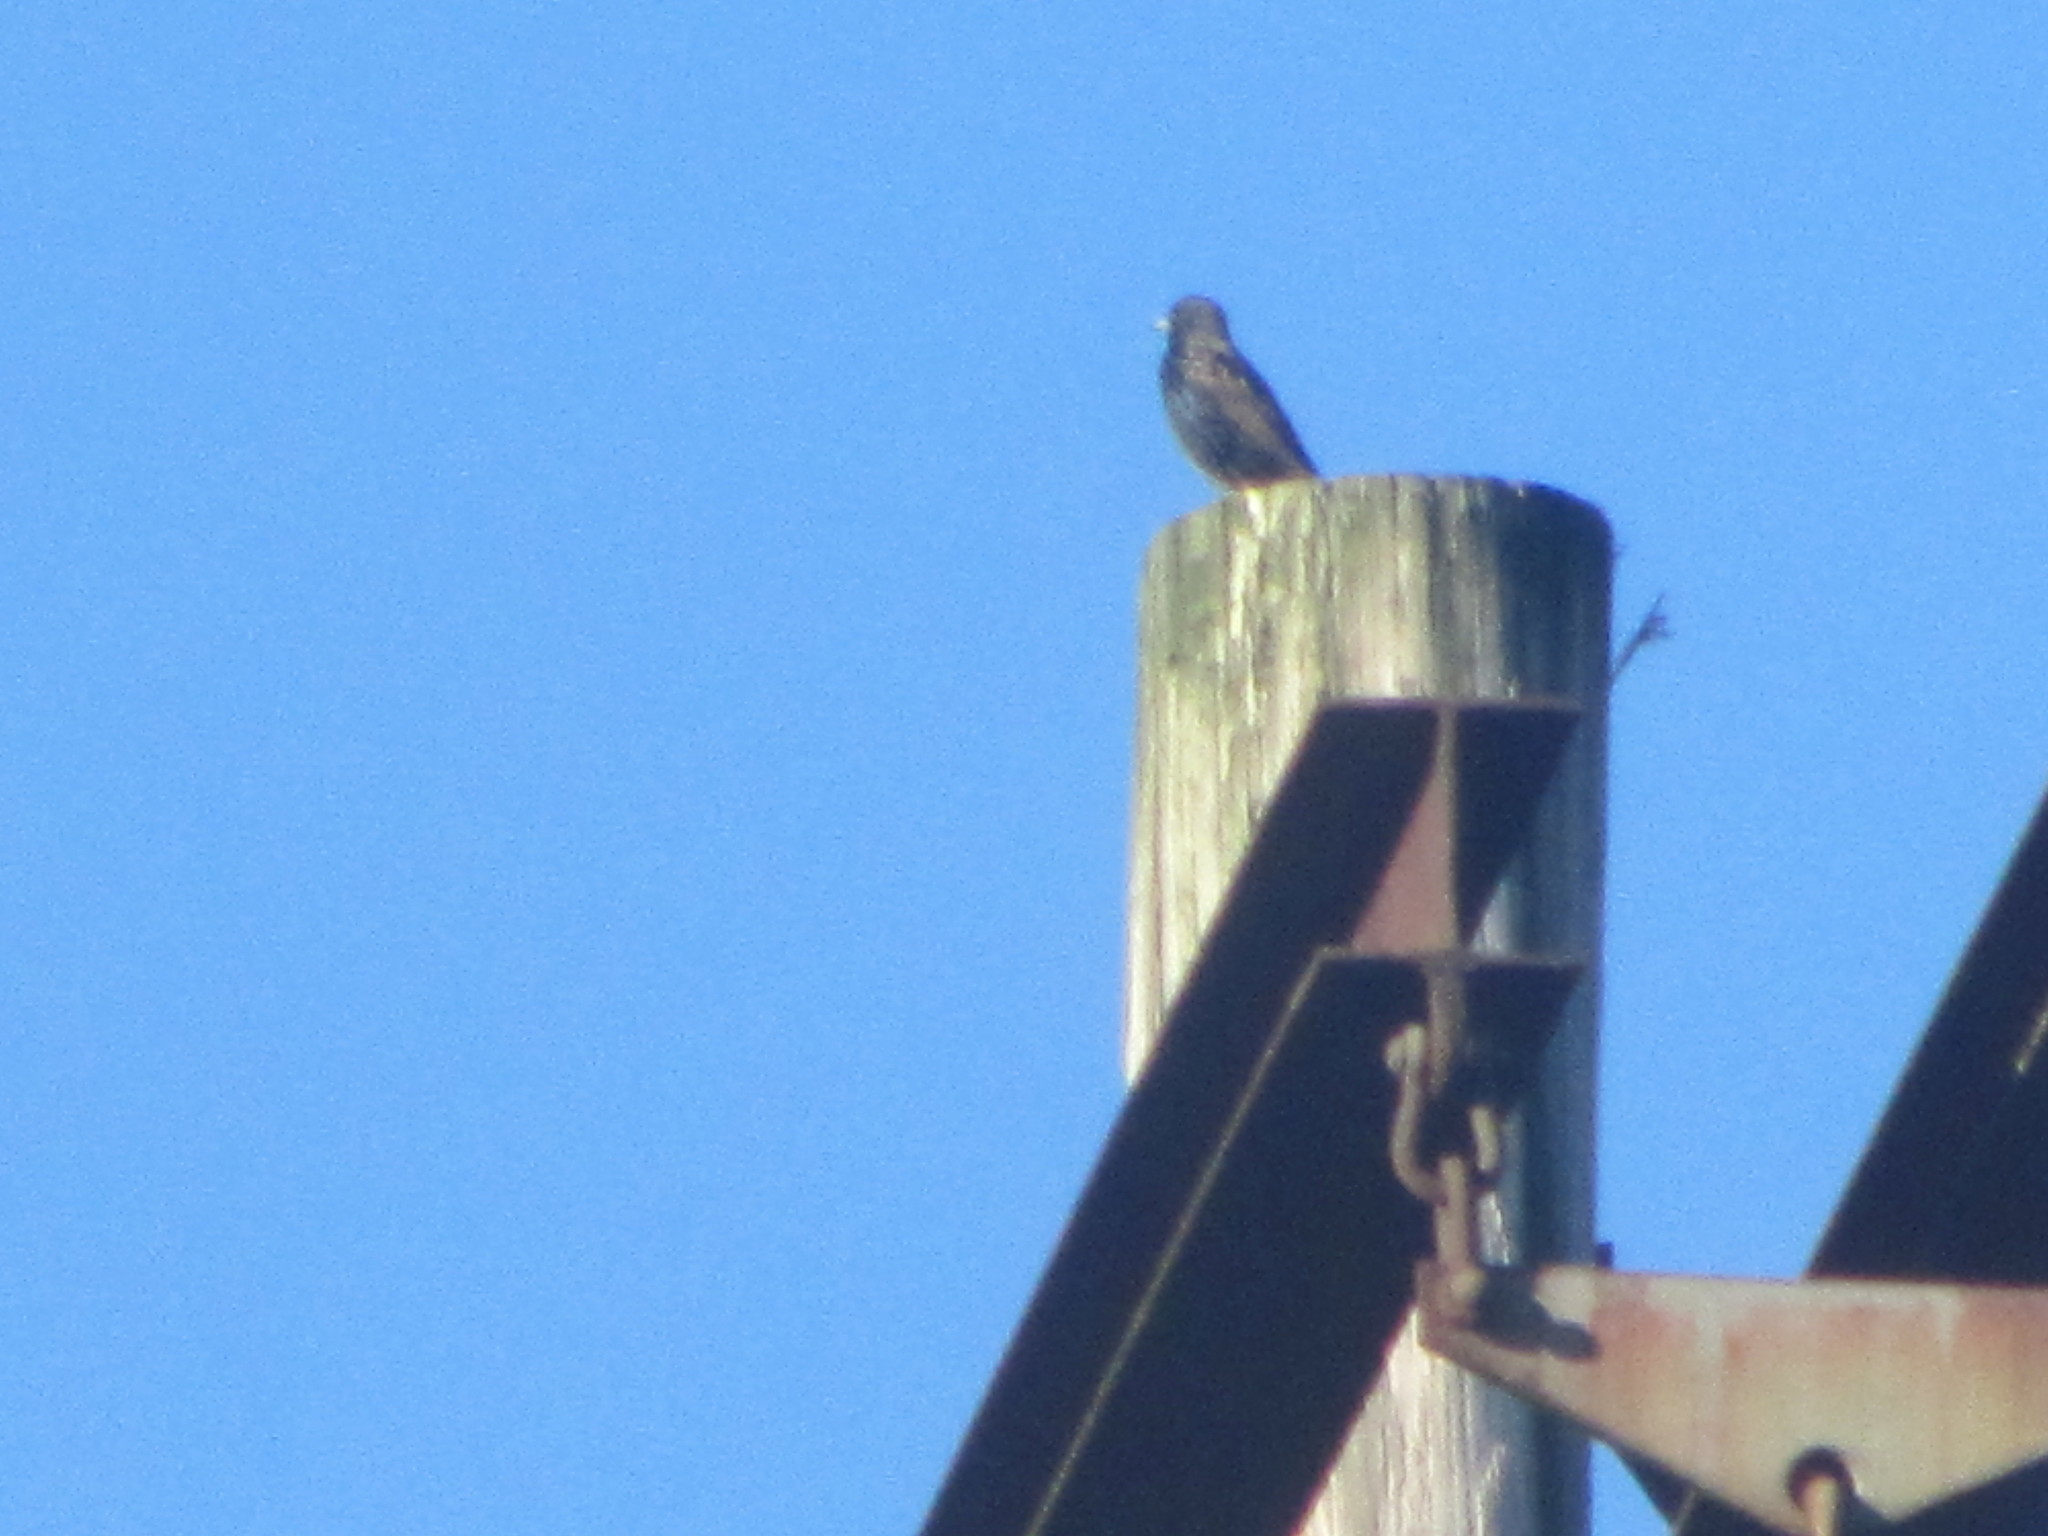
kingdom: Animalia
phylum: Chordata
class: Aves
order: Passeriformes
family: Sturnidae
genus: Sturnus
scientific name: Sturnus vulgaris
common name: Common starling
